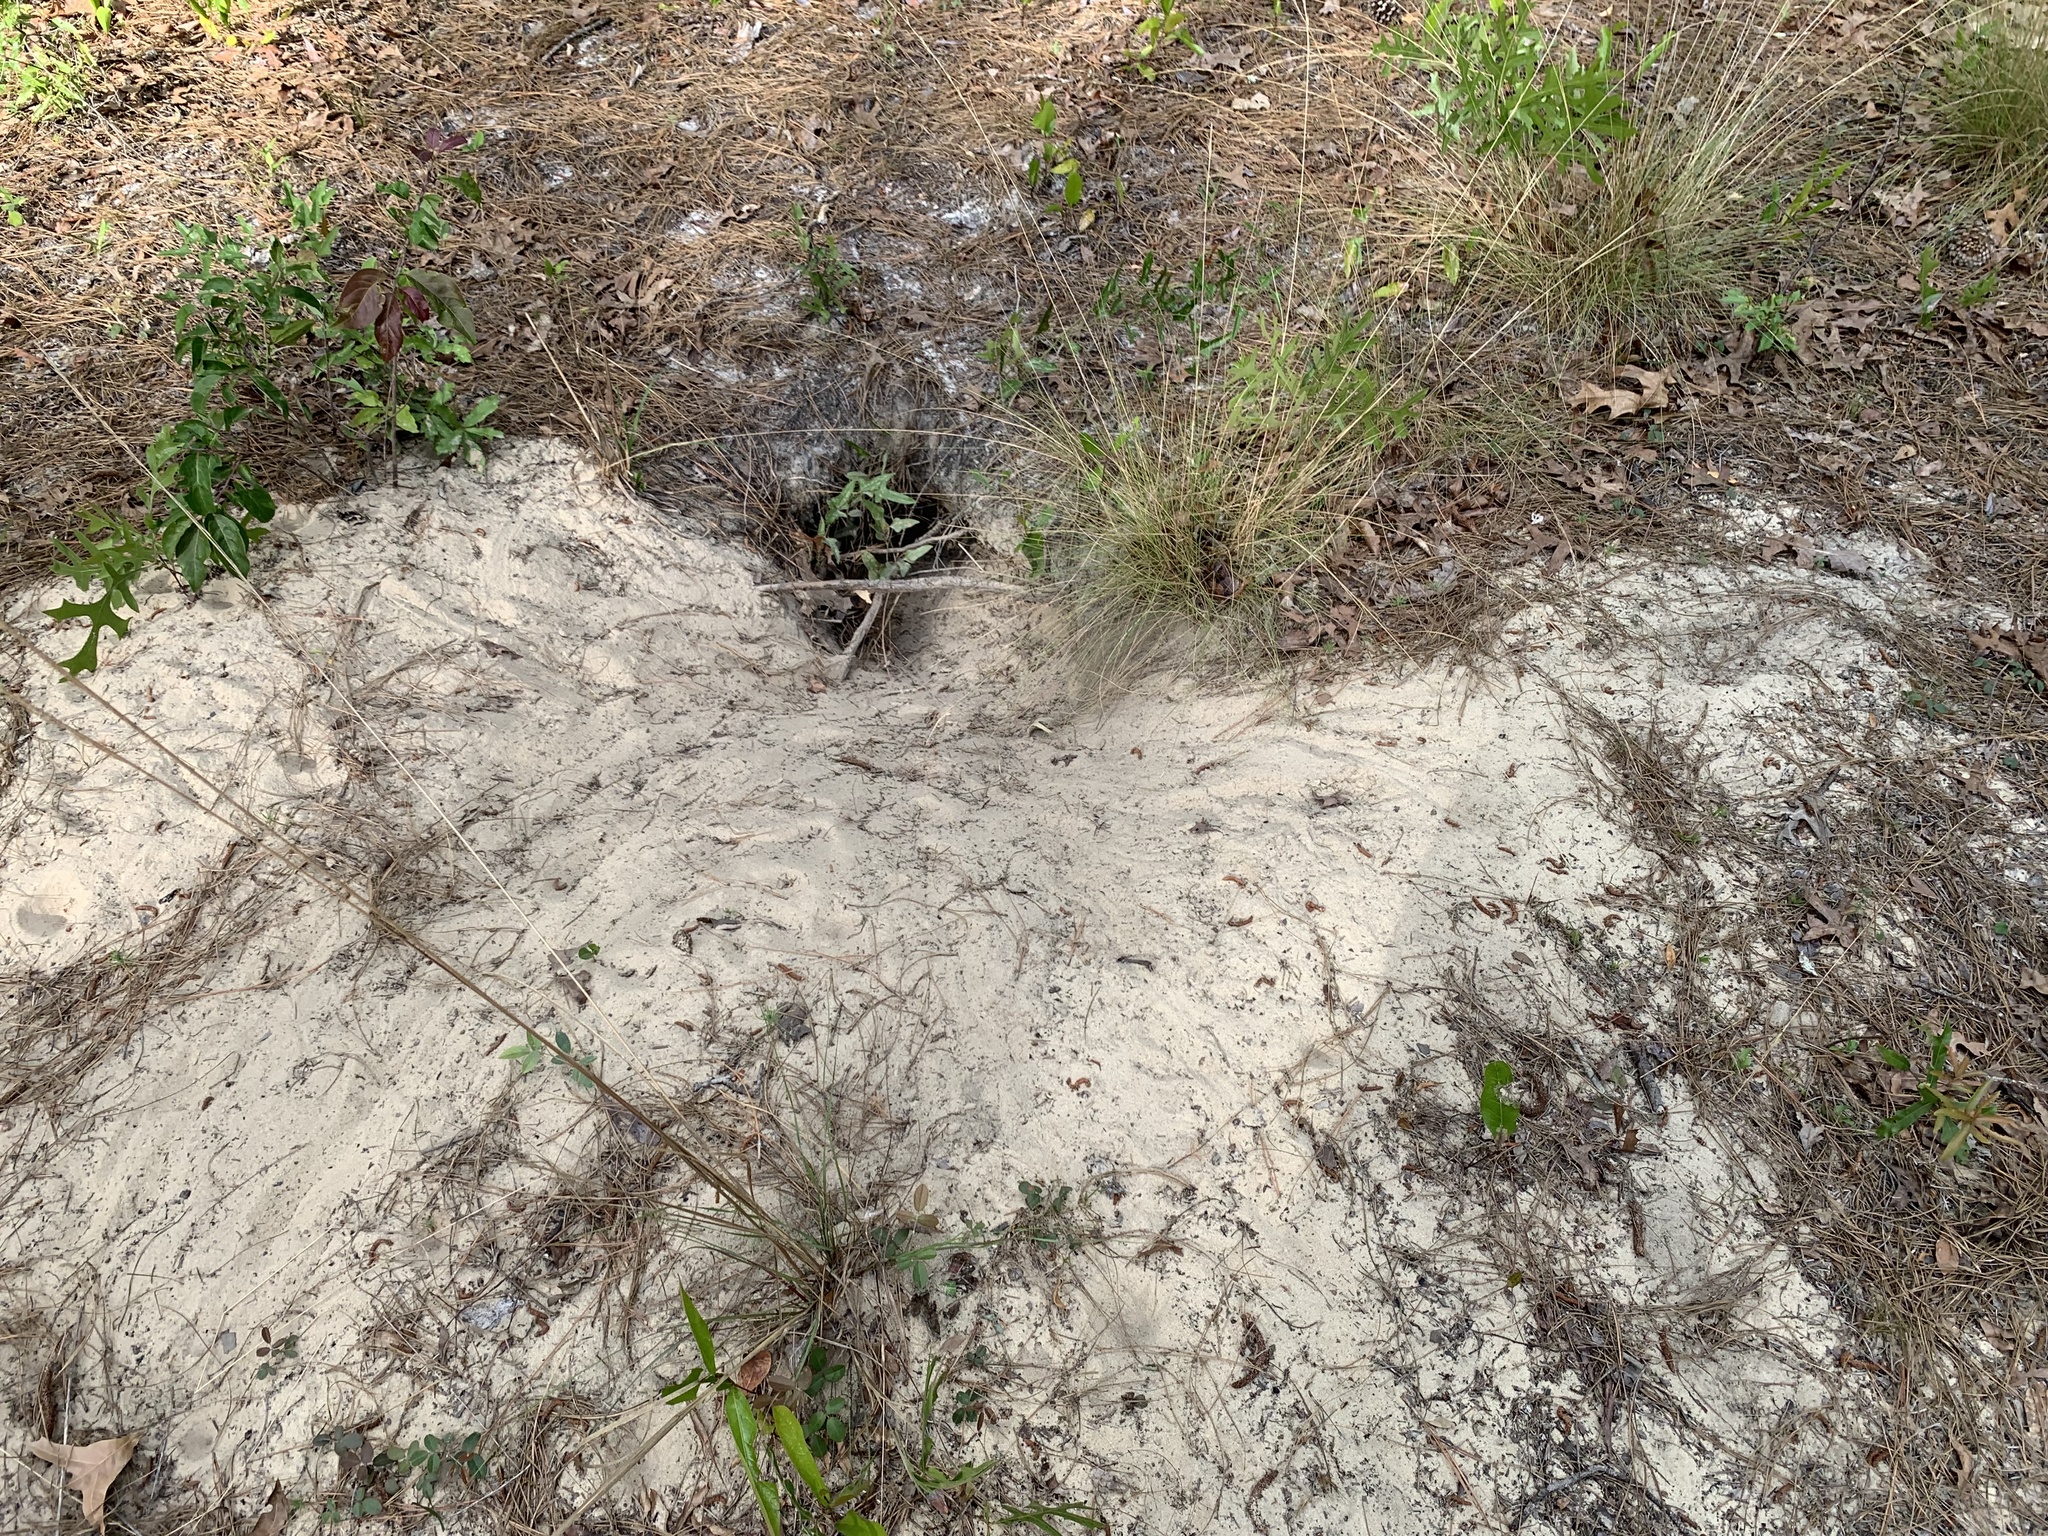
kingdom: Animalia
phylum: Chordata
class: Testudines
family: Testudinidae
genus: Gopherus
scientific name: Gopherus polyphemus
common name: Florida gopher tortoise
